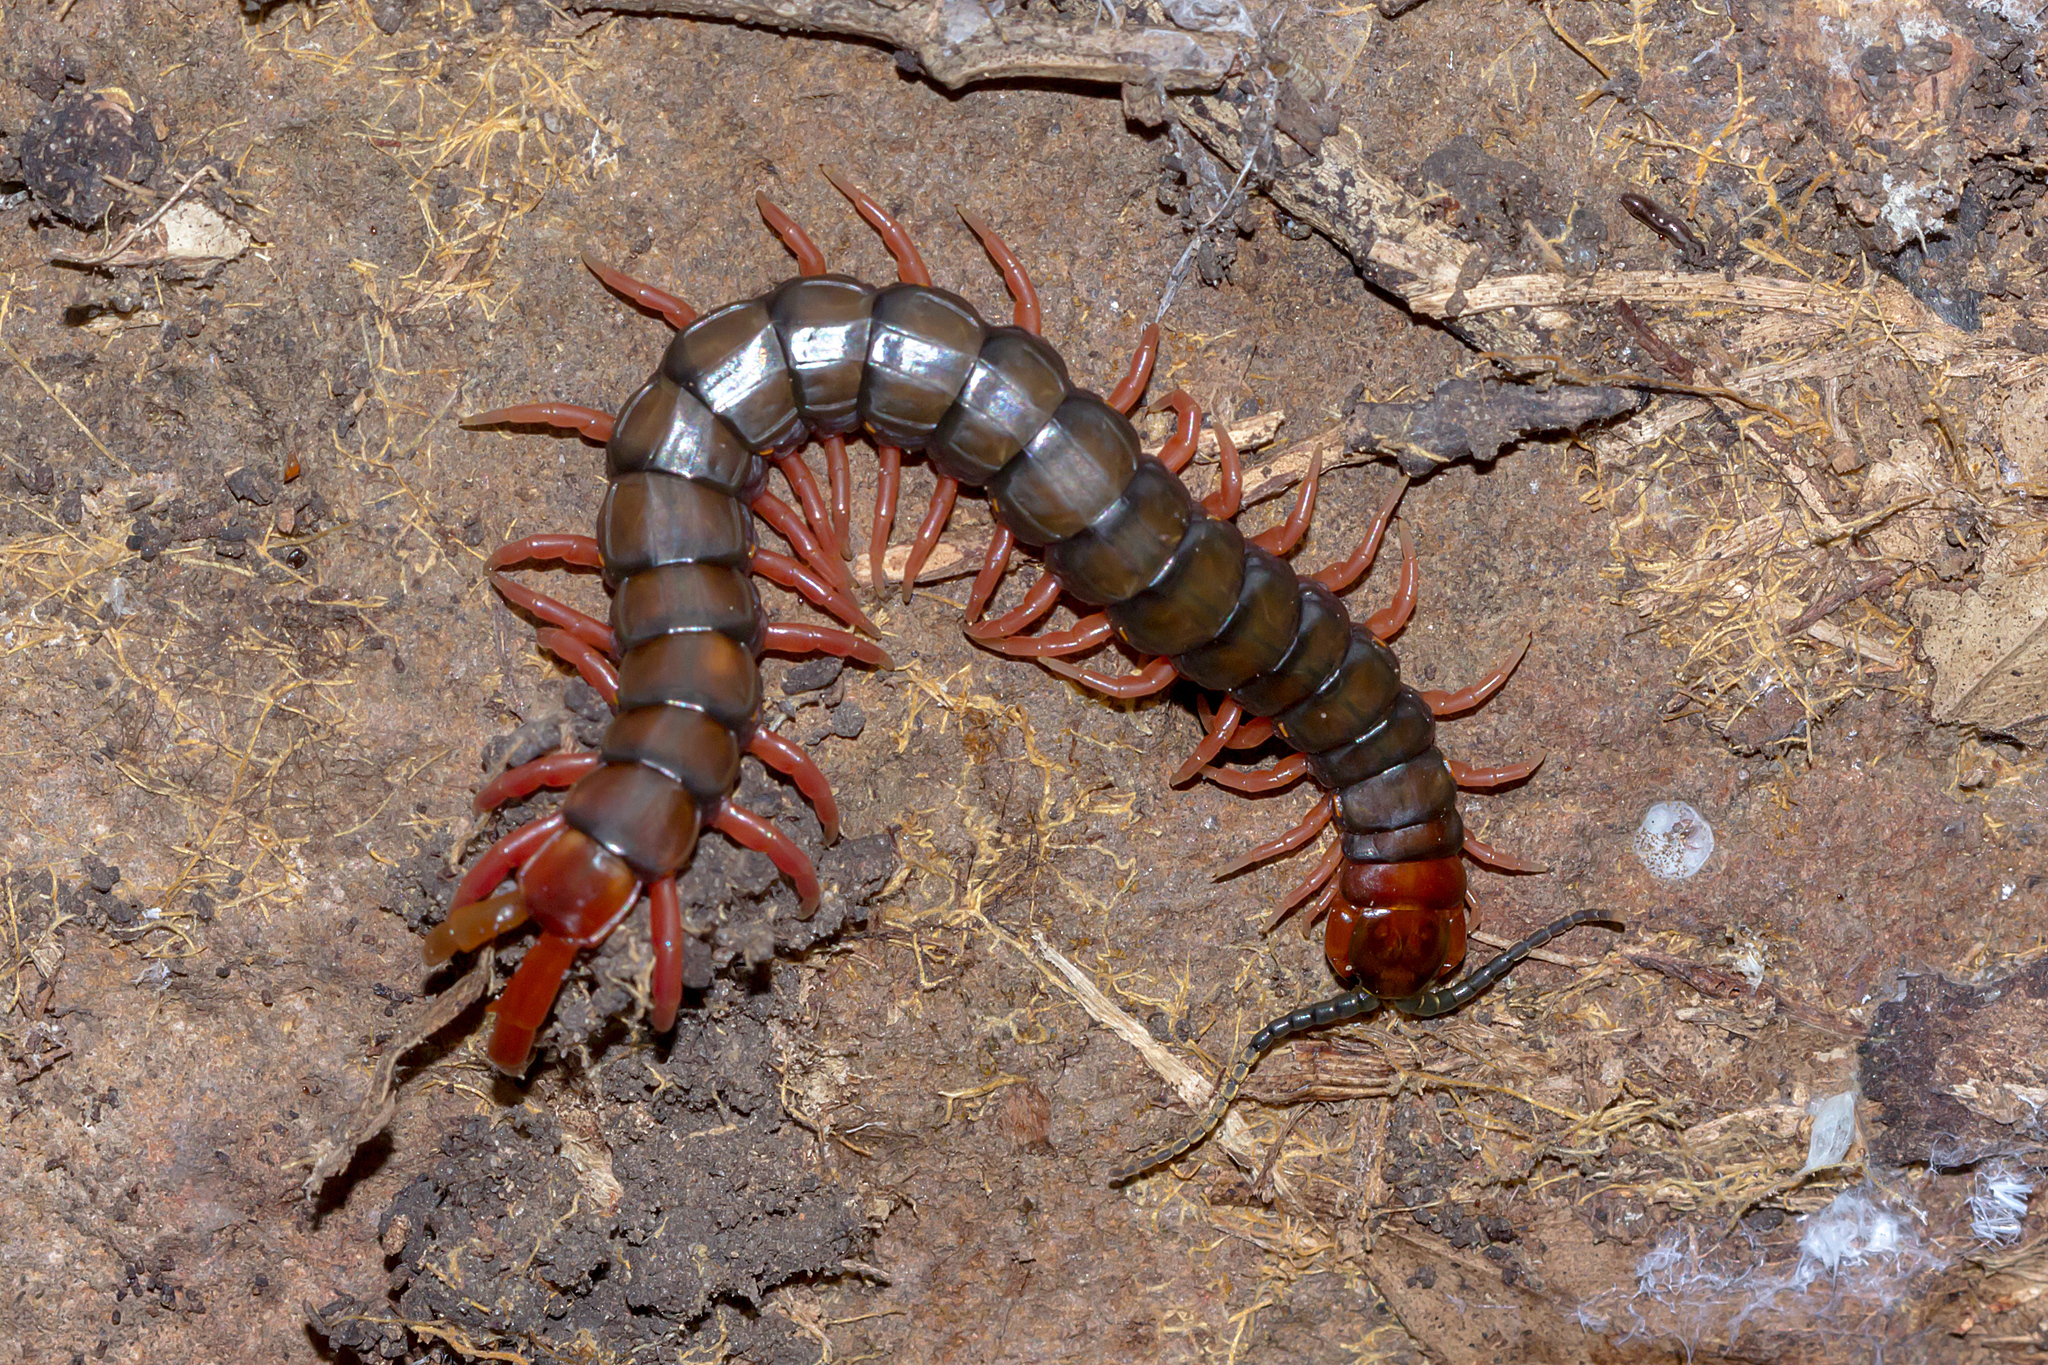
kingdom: Animalia
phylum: Arthropoda
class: Chilopoda
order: Scolopendromorpha
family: Scolopendridae
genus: Cormocephalus
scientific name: Cormocephalus aurantiipes
